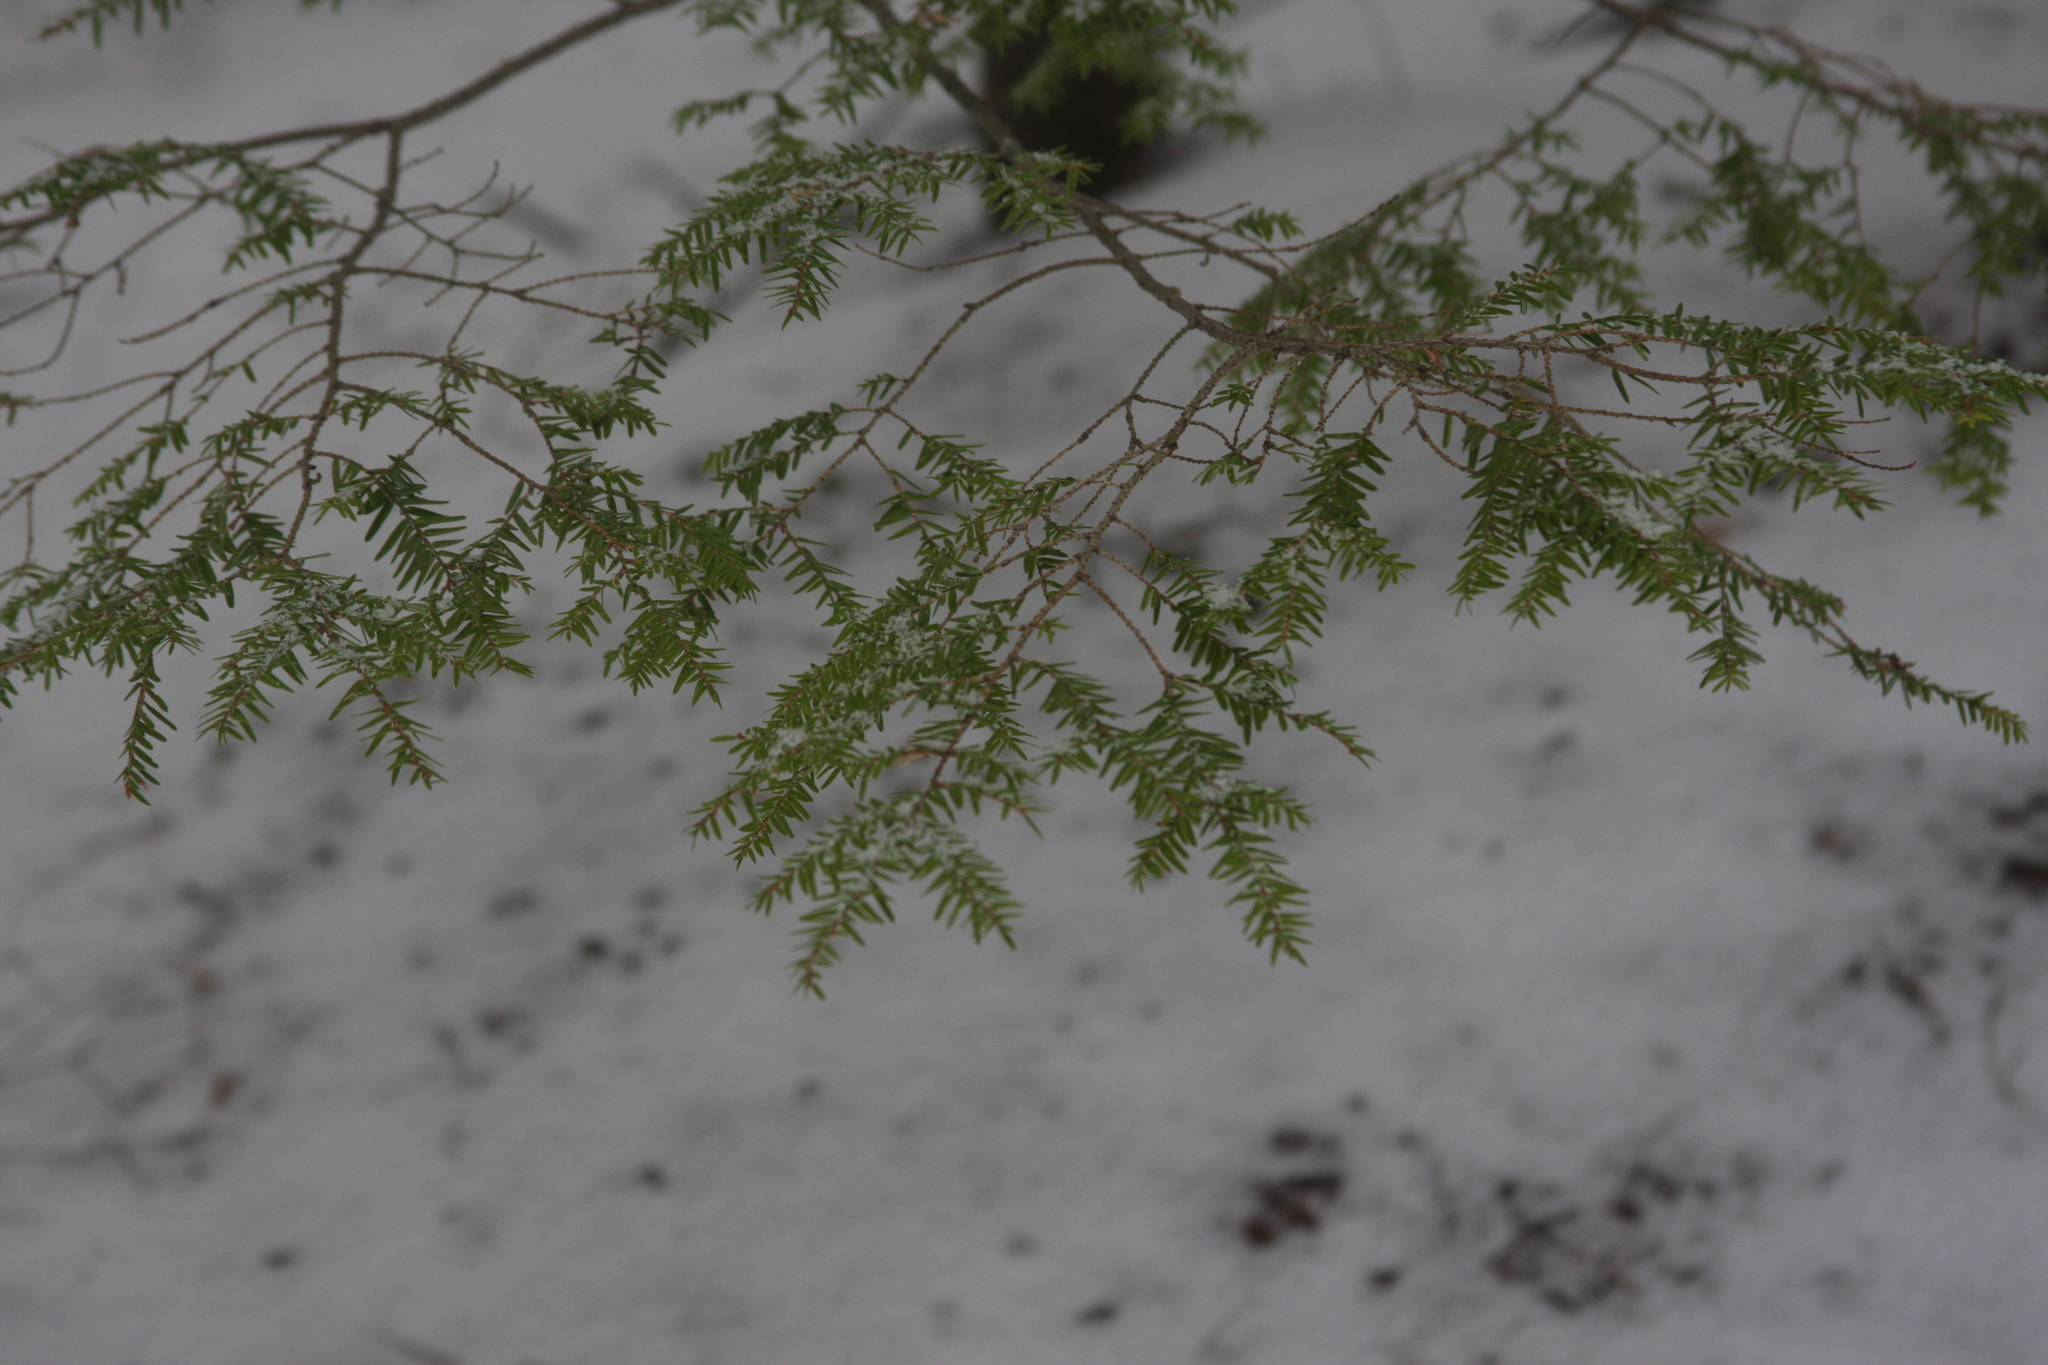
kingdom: Plantae
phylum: Tracheophyta
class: Pinopsida
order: Pinales
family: Pinaceae
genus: Tsuga
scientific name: Tsuga canadensis
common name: Eastern hemlock
